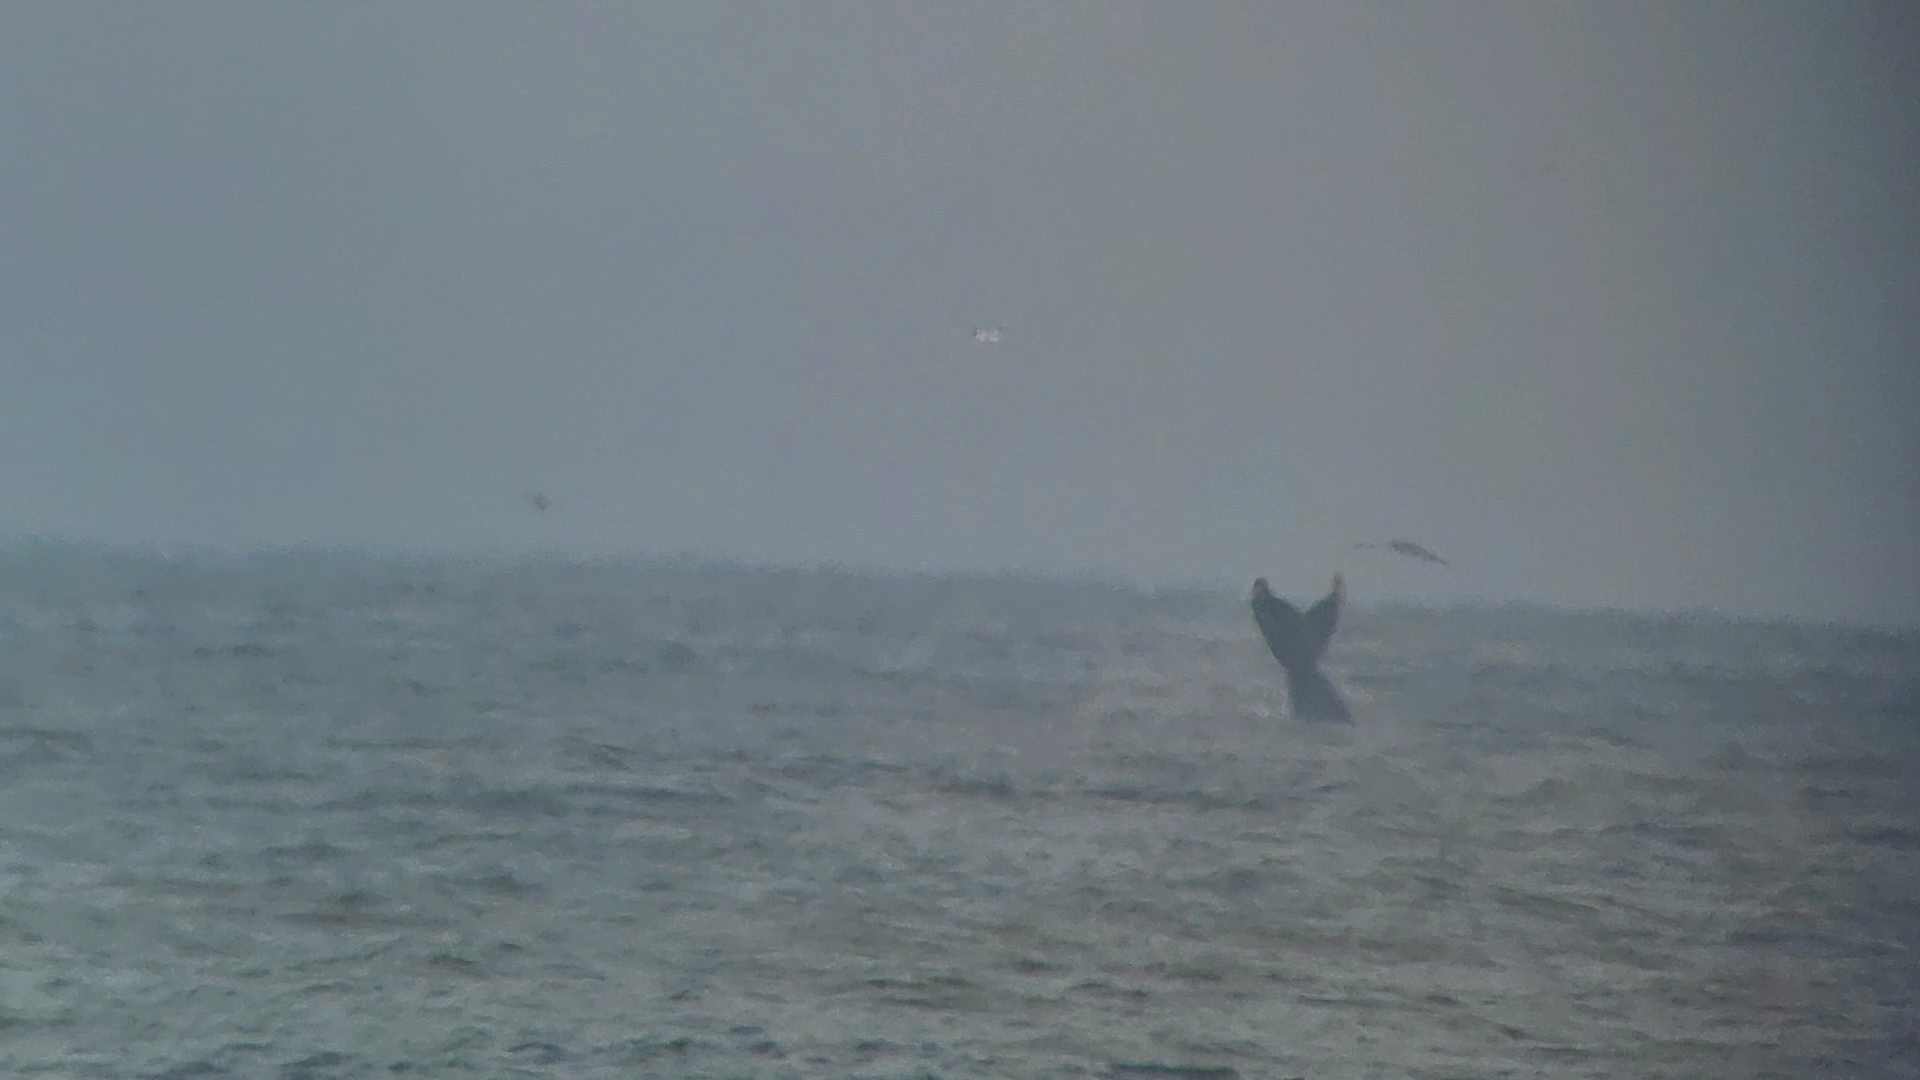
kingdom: Animalia
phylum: Chordata
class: Mammalia
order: Cetacea
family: Balaenopteridae
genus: Megaptera
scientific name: Megaptera novaeangliae
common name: Humpback whale
